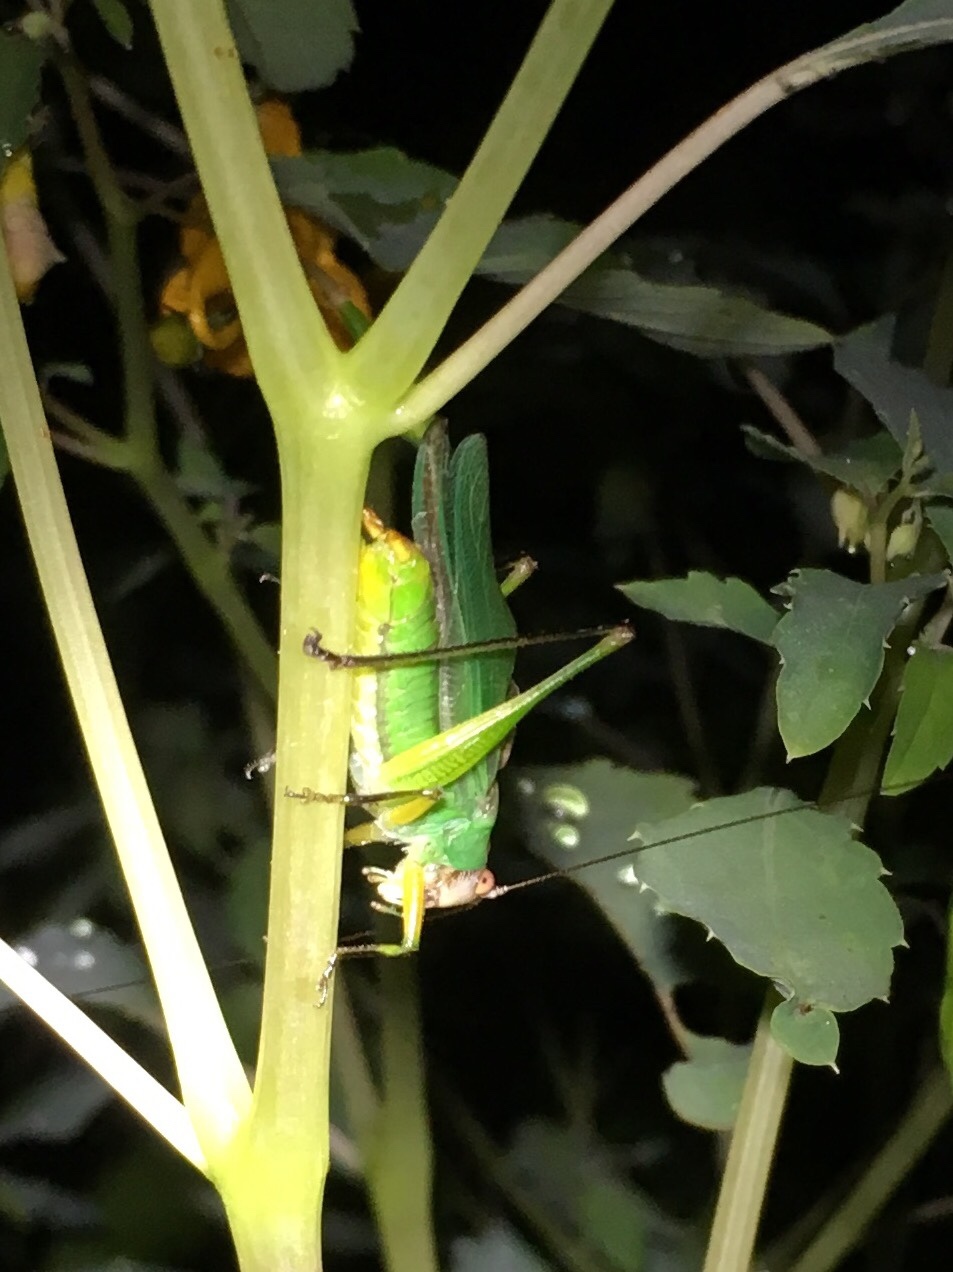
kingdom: Animalia
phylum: Arthropoda
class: Insecta
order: Orthoptera
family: Tettigoniidae
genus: Orchelimum
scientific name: Orchelimum nigripes
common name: Black-legged meadow katydid
